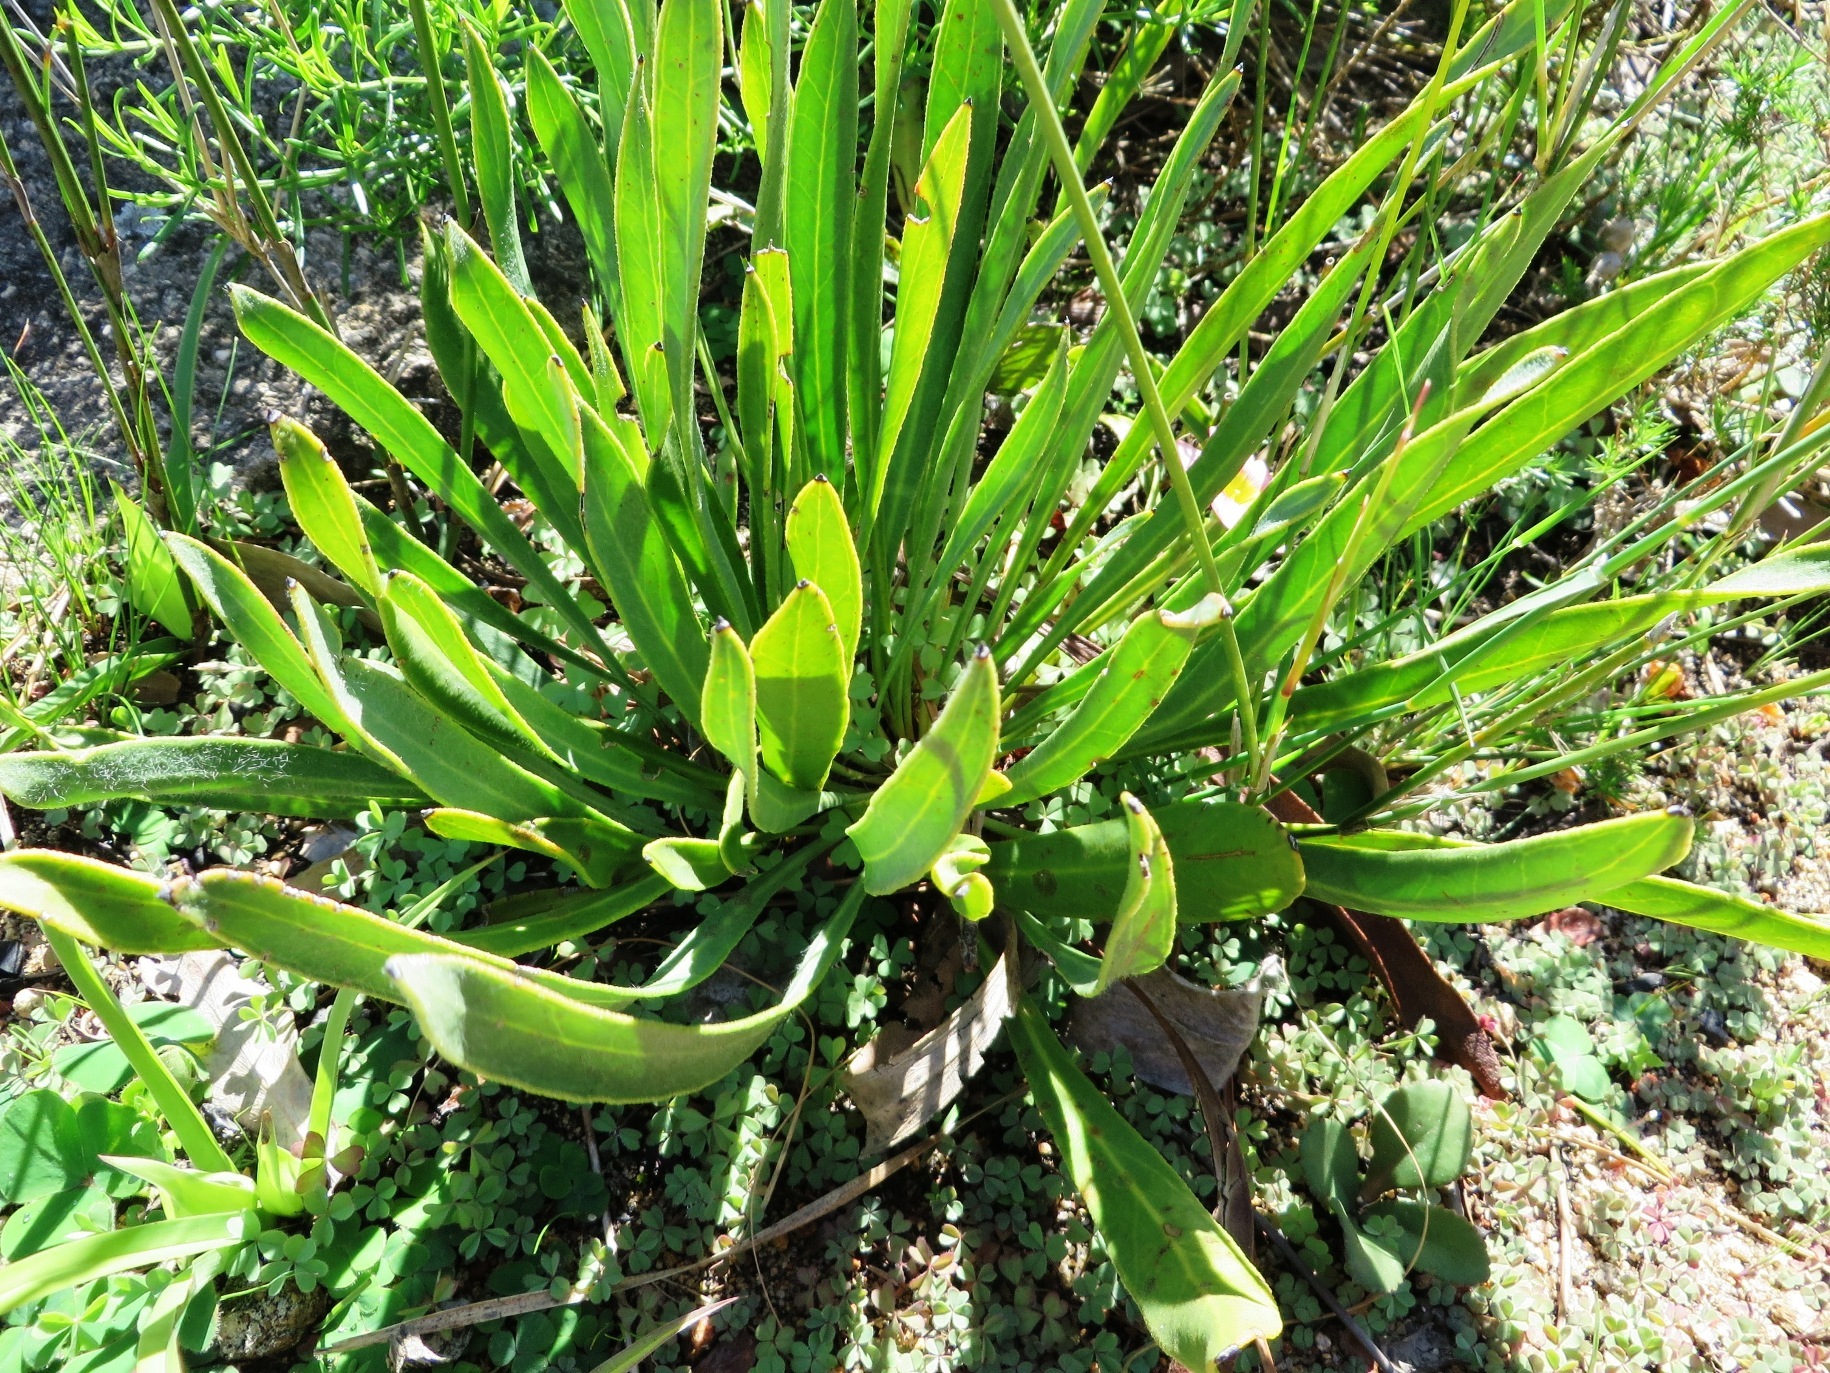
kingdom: Plantae
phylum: Tracheophyta
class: Magnoliopsida
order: Proteales
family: Proteaceae
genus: Protea
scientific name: Protea scabra
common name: Sandpaper-leaf sugarbush
